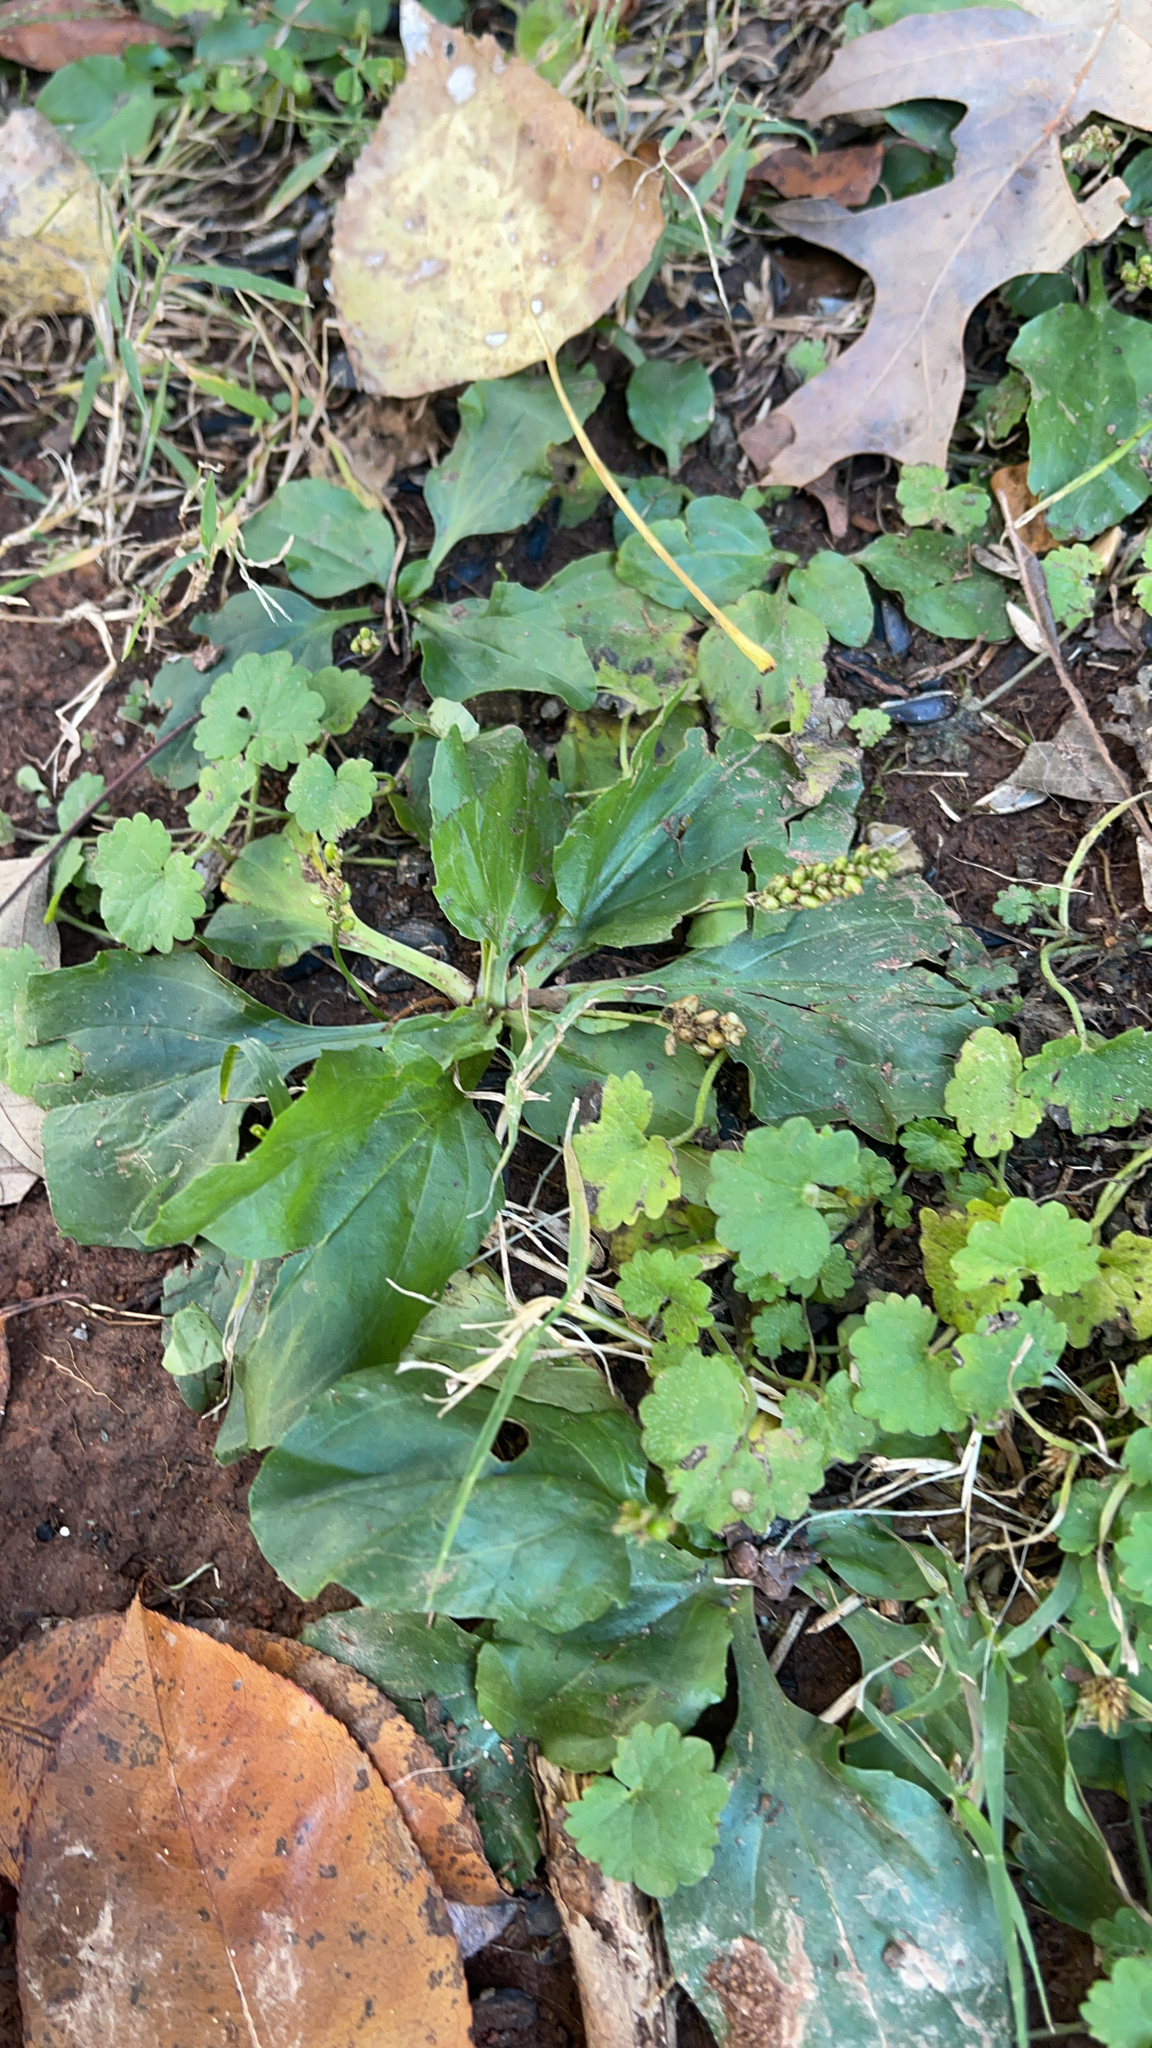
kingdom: Plantae
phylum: Tracheophyta
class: Magnoliopsida
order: Lamiales
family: Plantaginaceae
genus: Plantago
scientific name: Plantago major
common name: Common plantain
